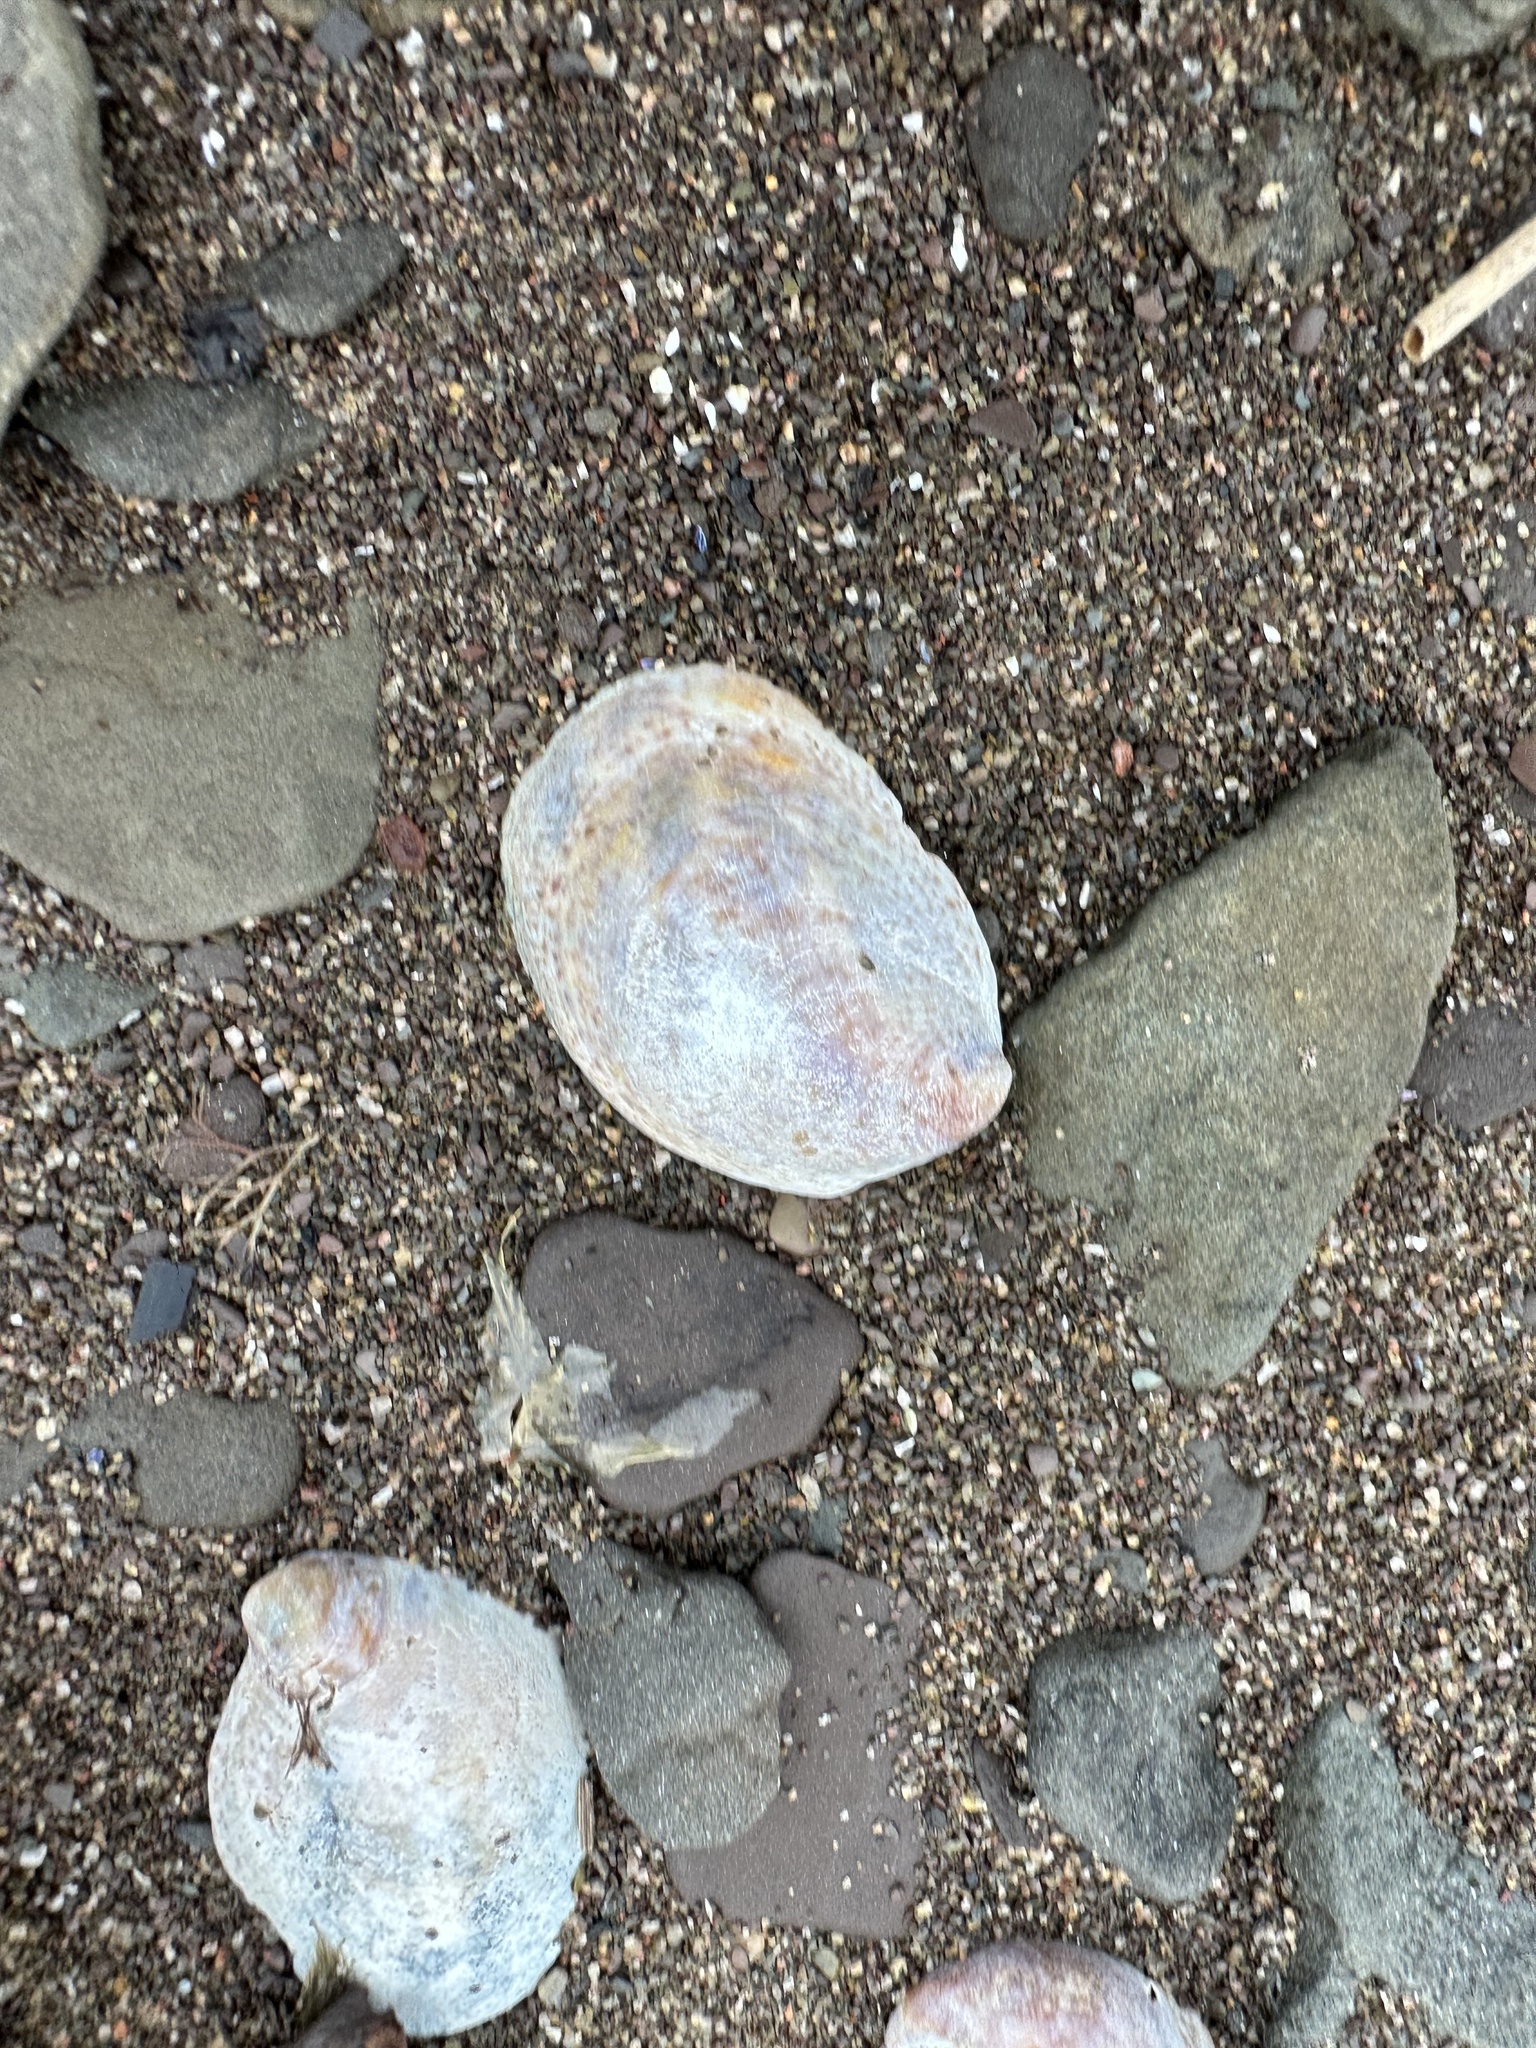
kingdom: Animalia
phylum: Mollusca
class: Gastropoda
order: Littorinimorpha
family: Calyptraeidae
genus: Crepidula
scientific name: Crepidula fornicata
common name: Slipper limpet
